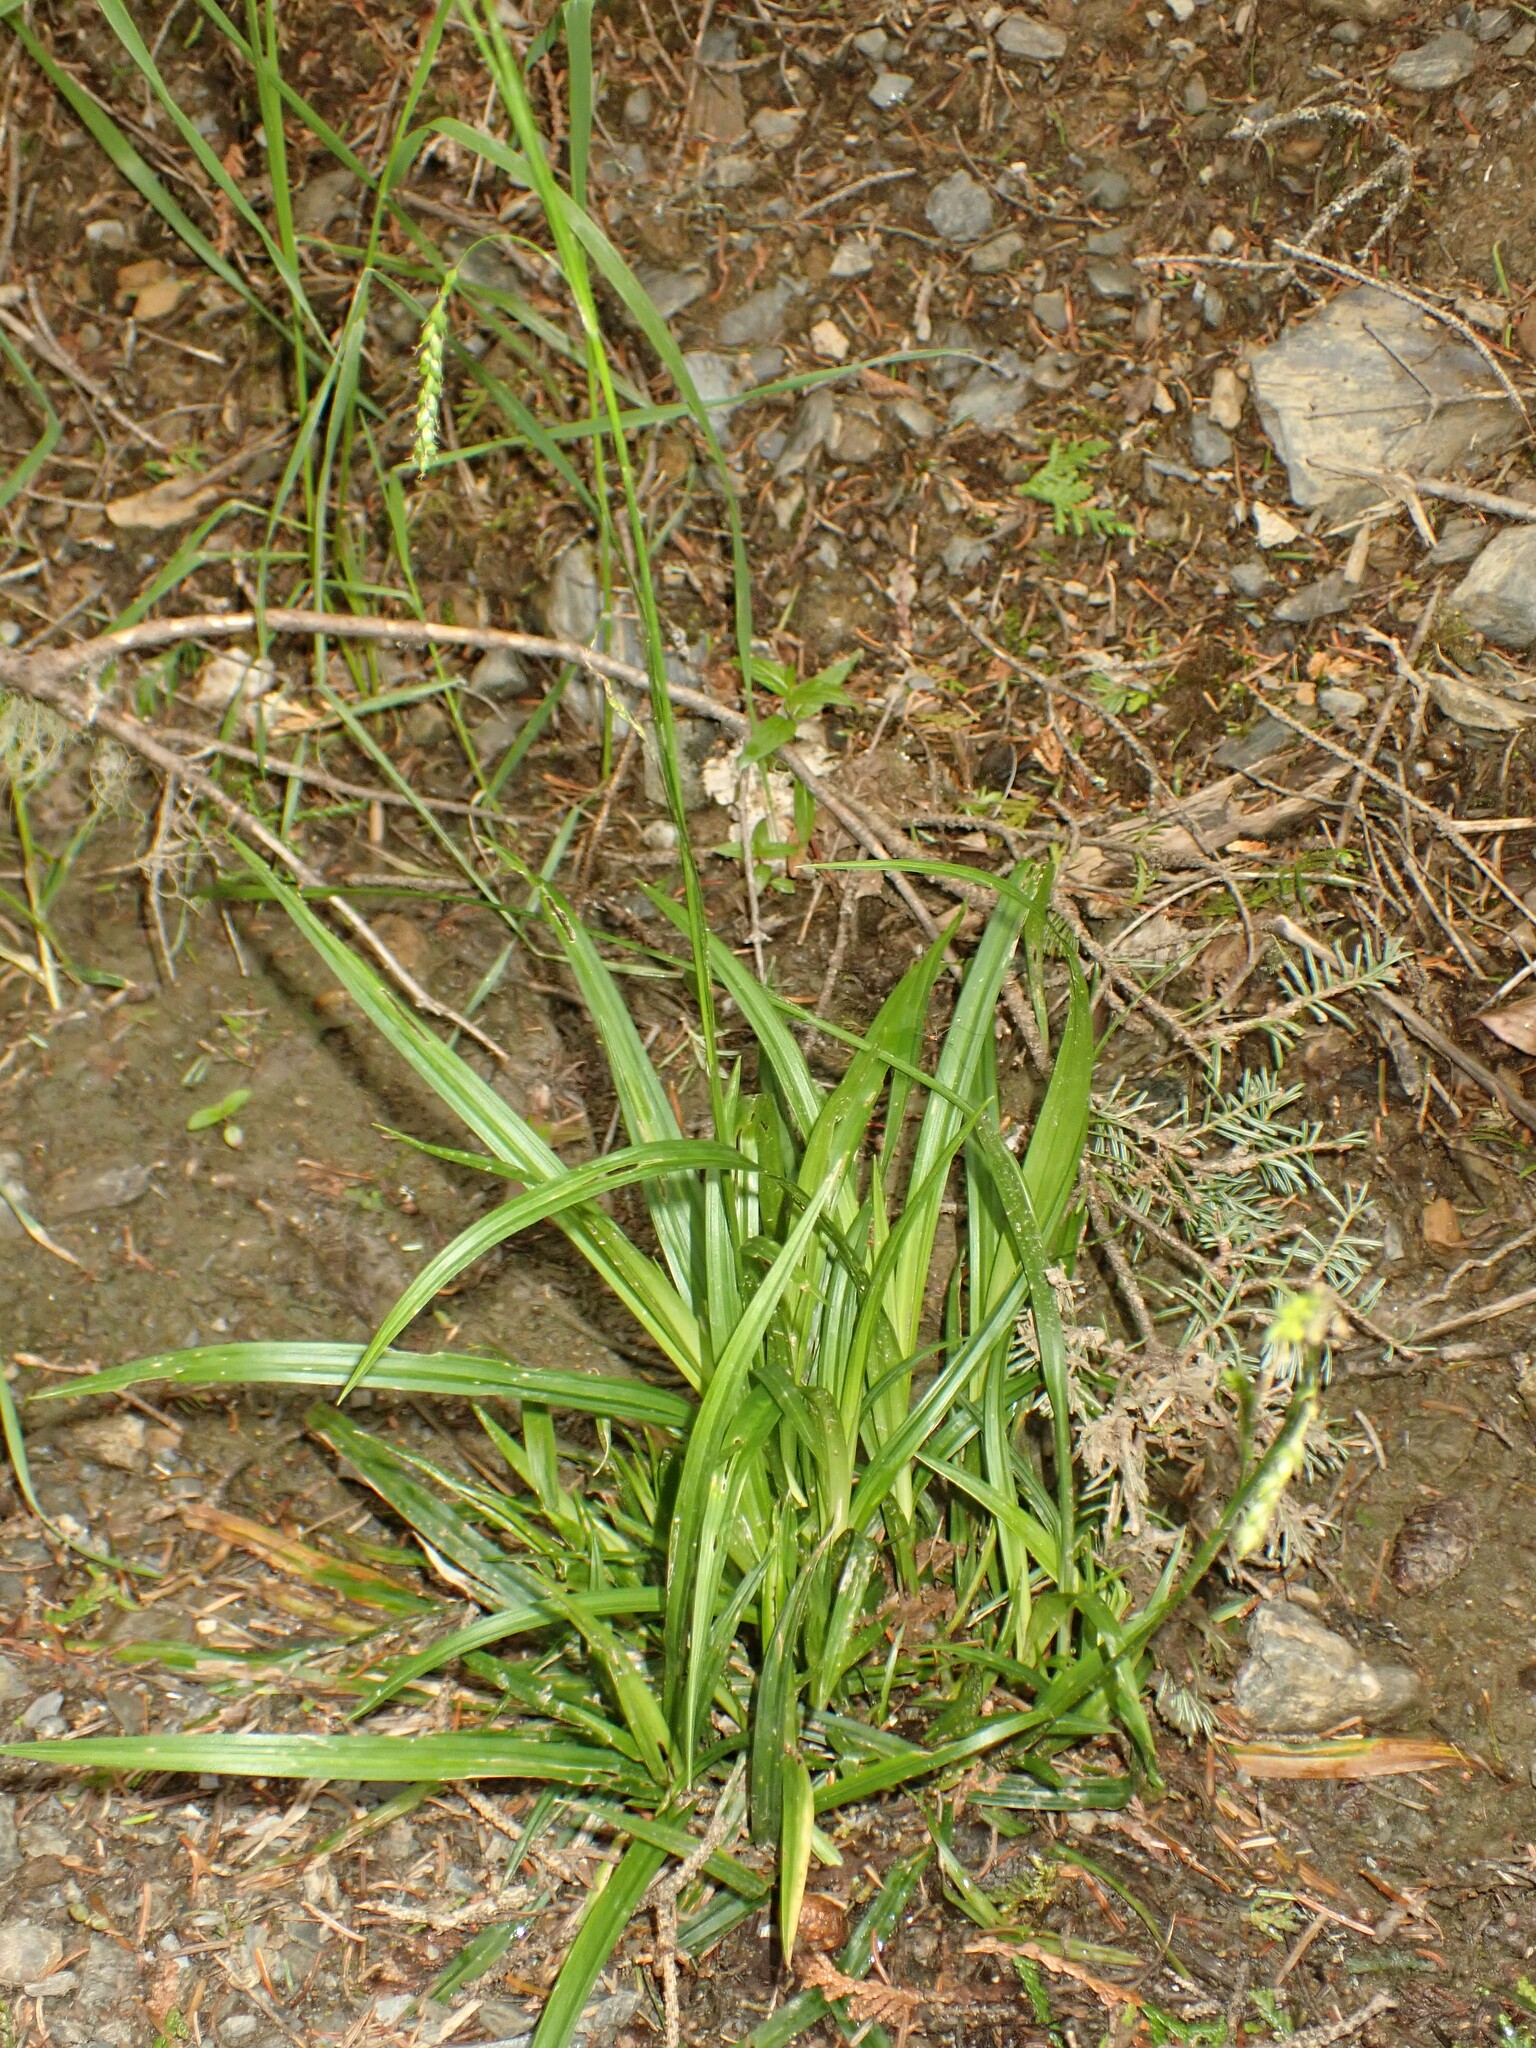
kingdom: Plantae
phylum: Tracheophyta
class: Liliopsida
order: Poales
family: Cyperaceae
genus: Carex
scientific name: Carex arctata
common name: Black sedge
